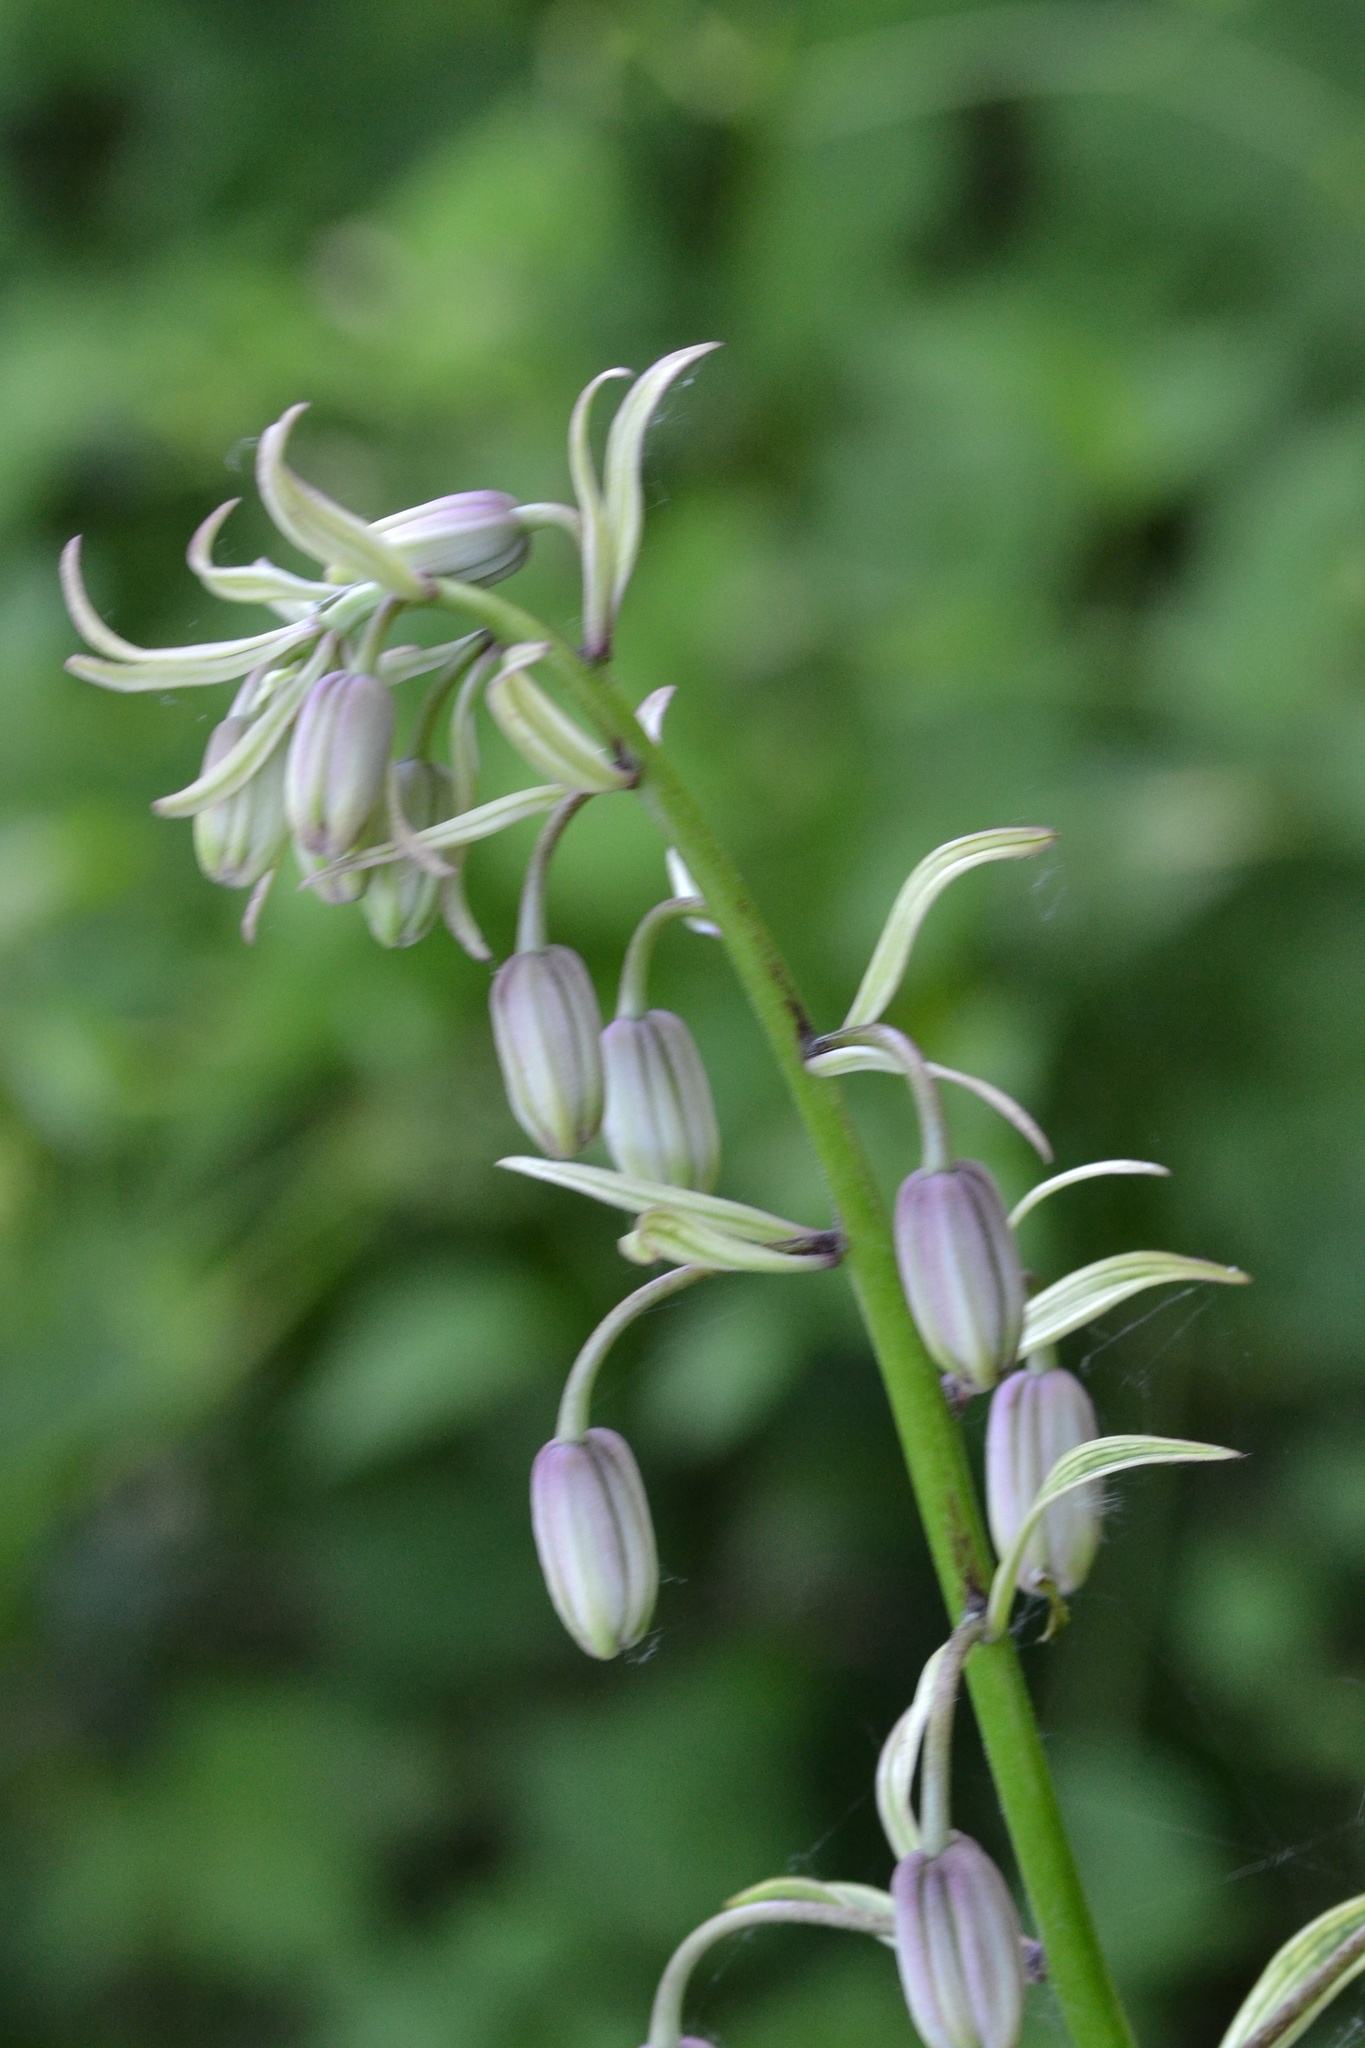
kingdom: Plantae
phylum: Tracheophyta
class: Liliopsida
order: Liliales
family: Liliaceae
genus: Lilium
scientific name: Lilium martagon
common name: Martagon lily
